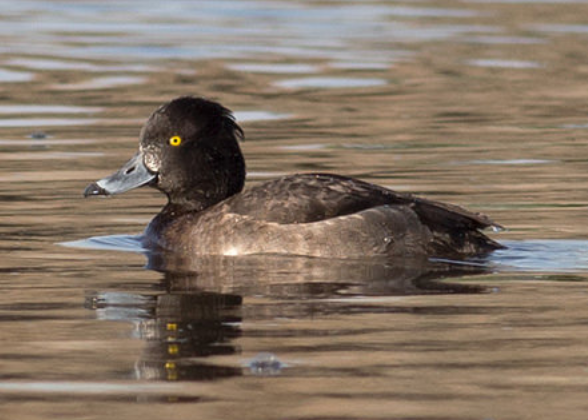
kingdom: Animalia
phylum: Chordata
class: Aves
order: Anseriformes
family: Anatidae
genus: Aythya
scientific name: Aythya fuligula
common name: Tufted duck
